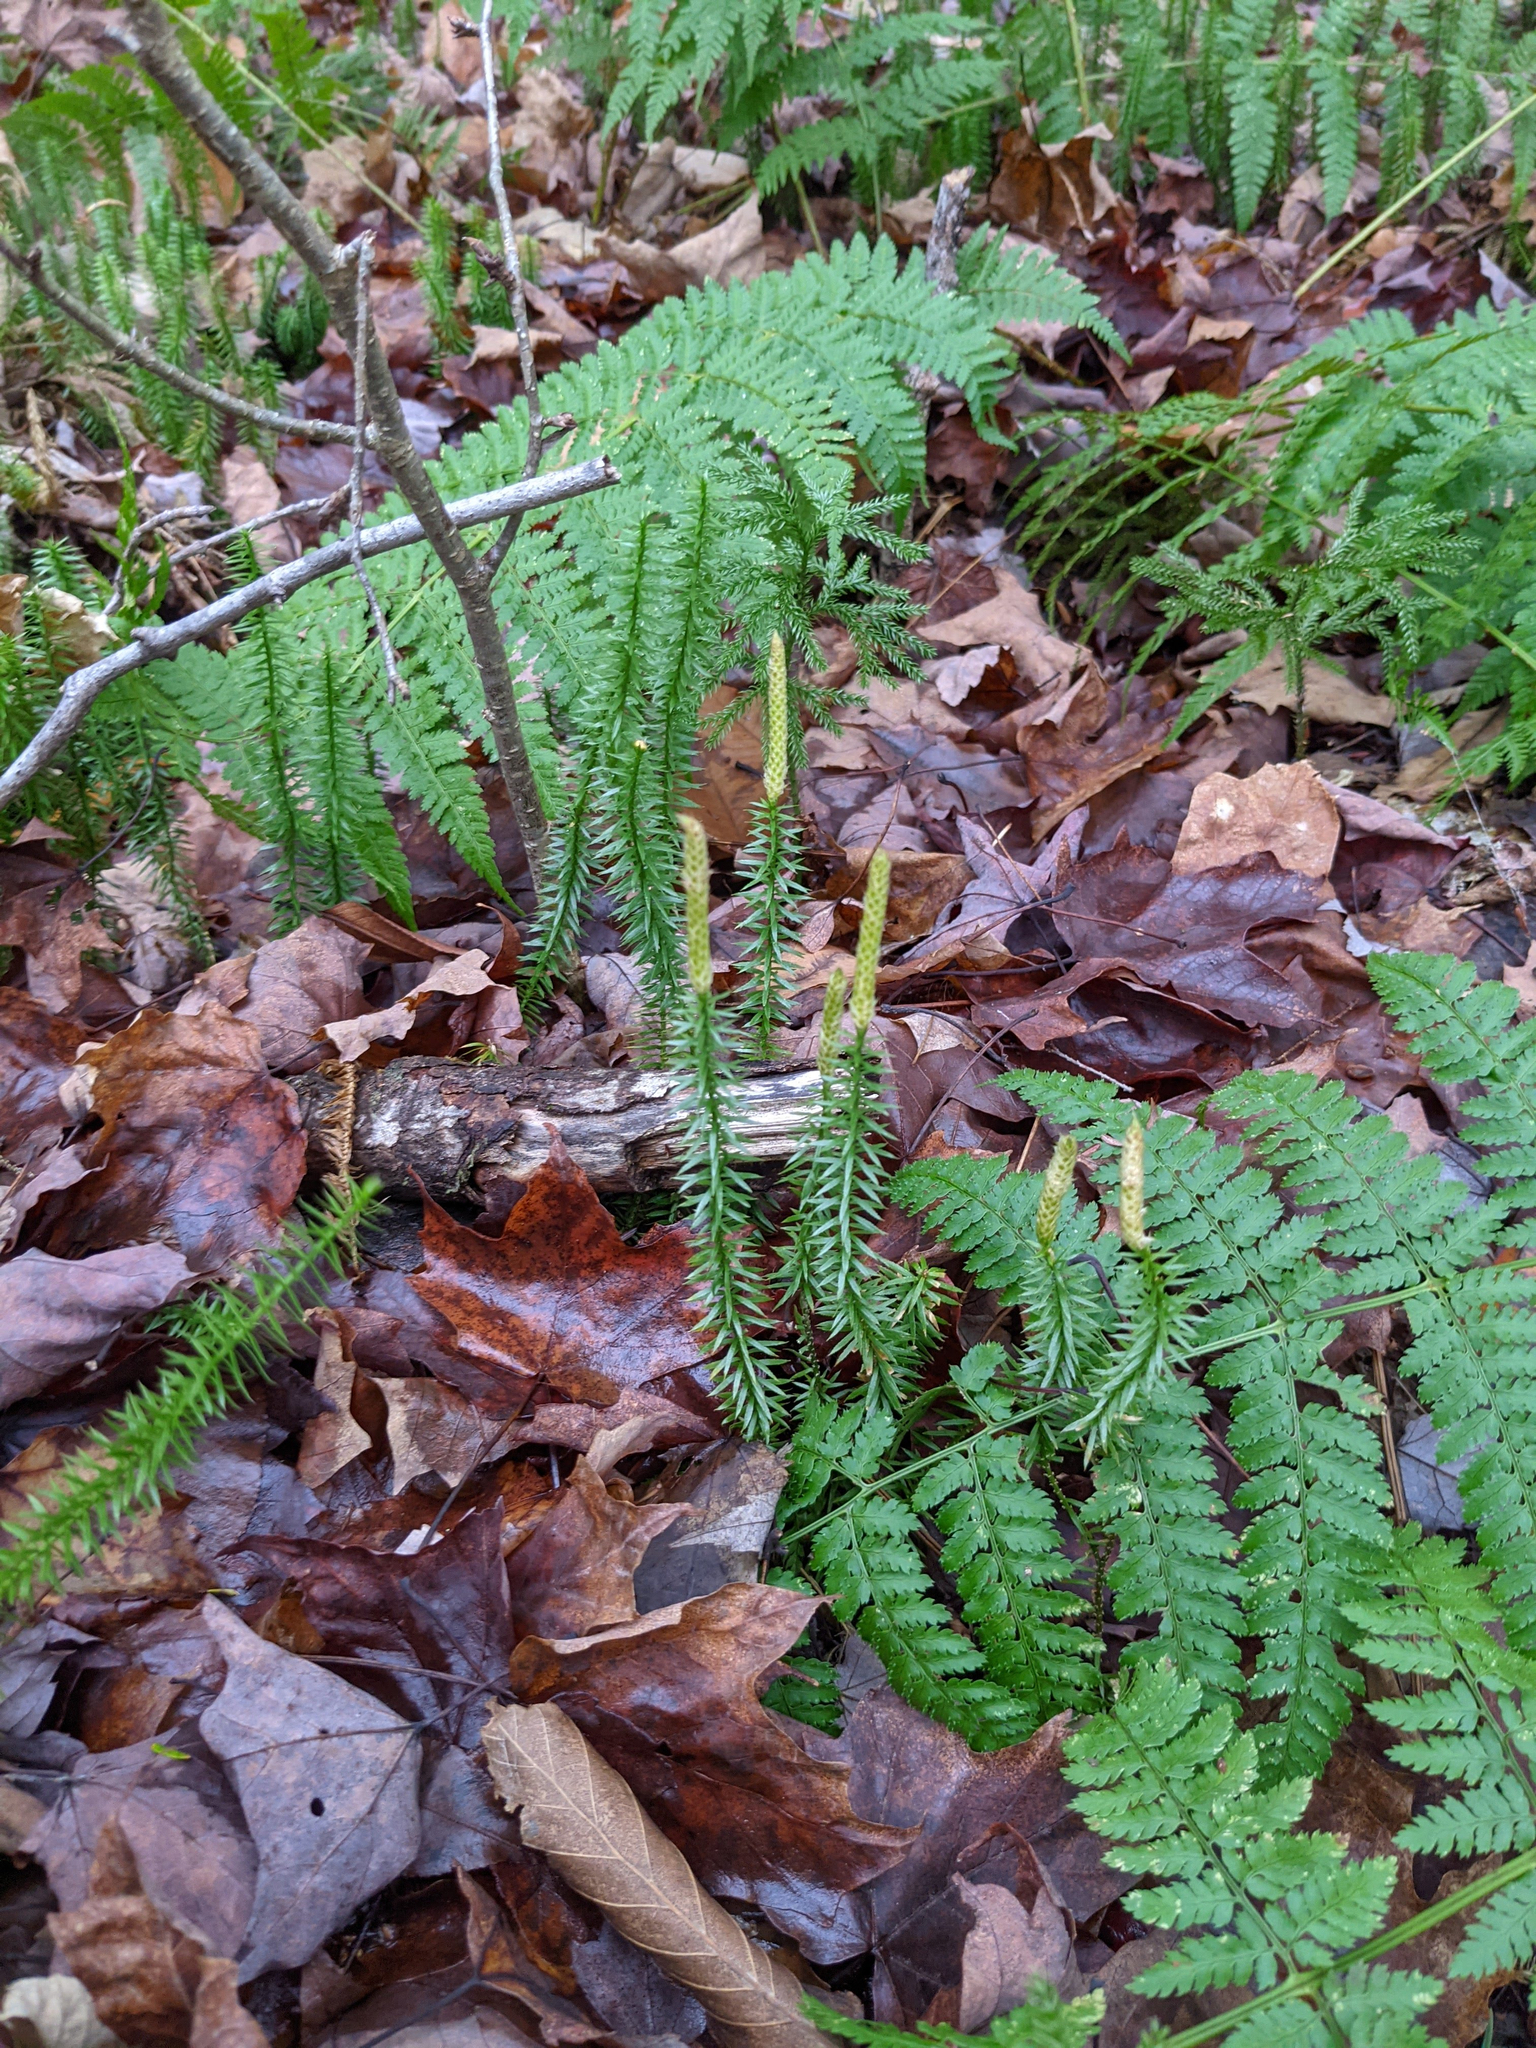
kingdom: Plantae
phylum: Tracheophyta
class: Lycopodiopsida
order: Lycopodiales
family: Lycopodiaceae
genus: Spinulum
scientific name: Spinulum annotinum
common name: Interrupted club-moss
